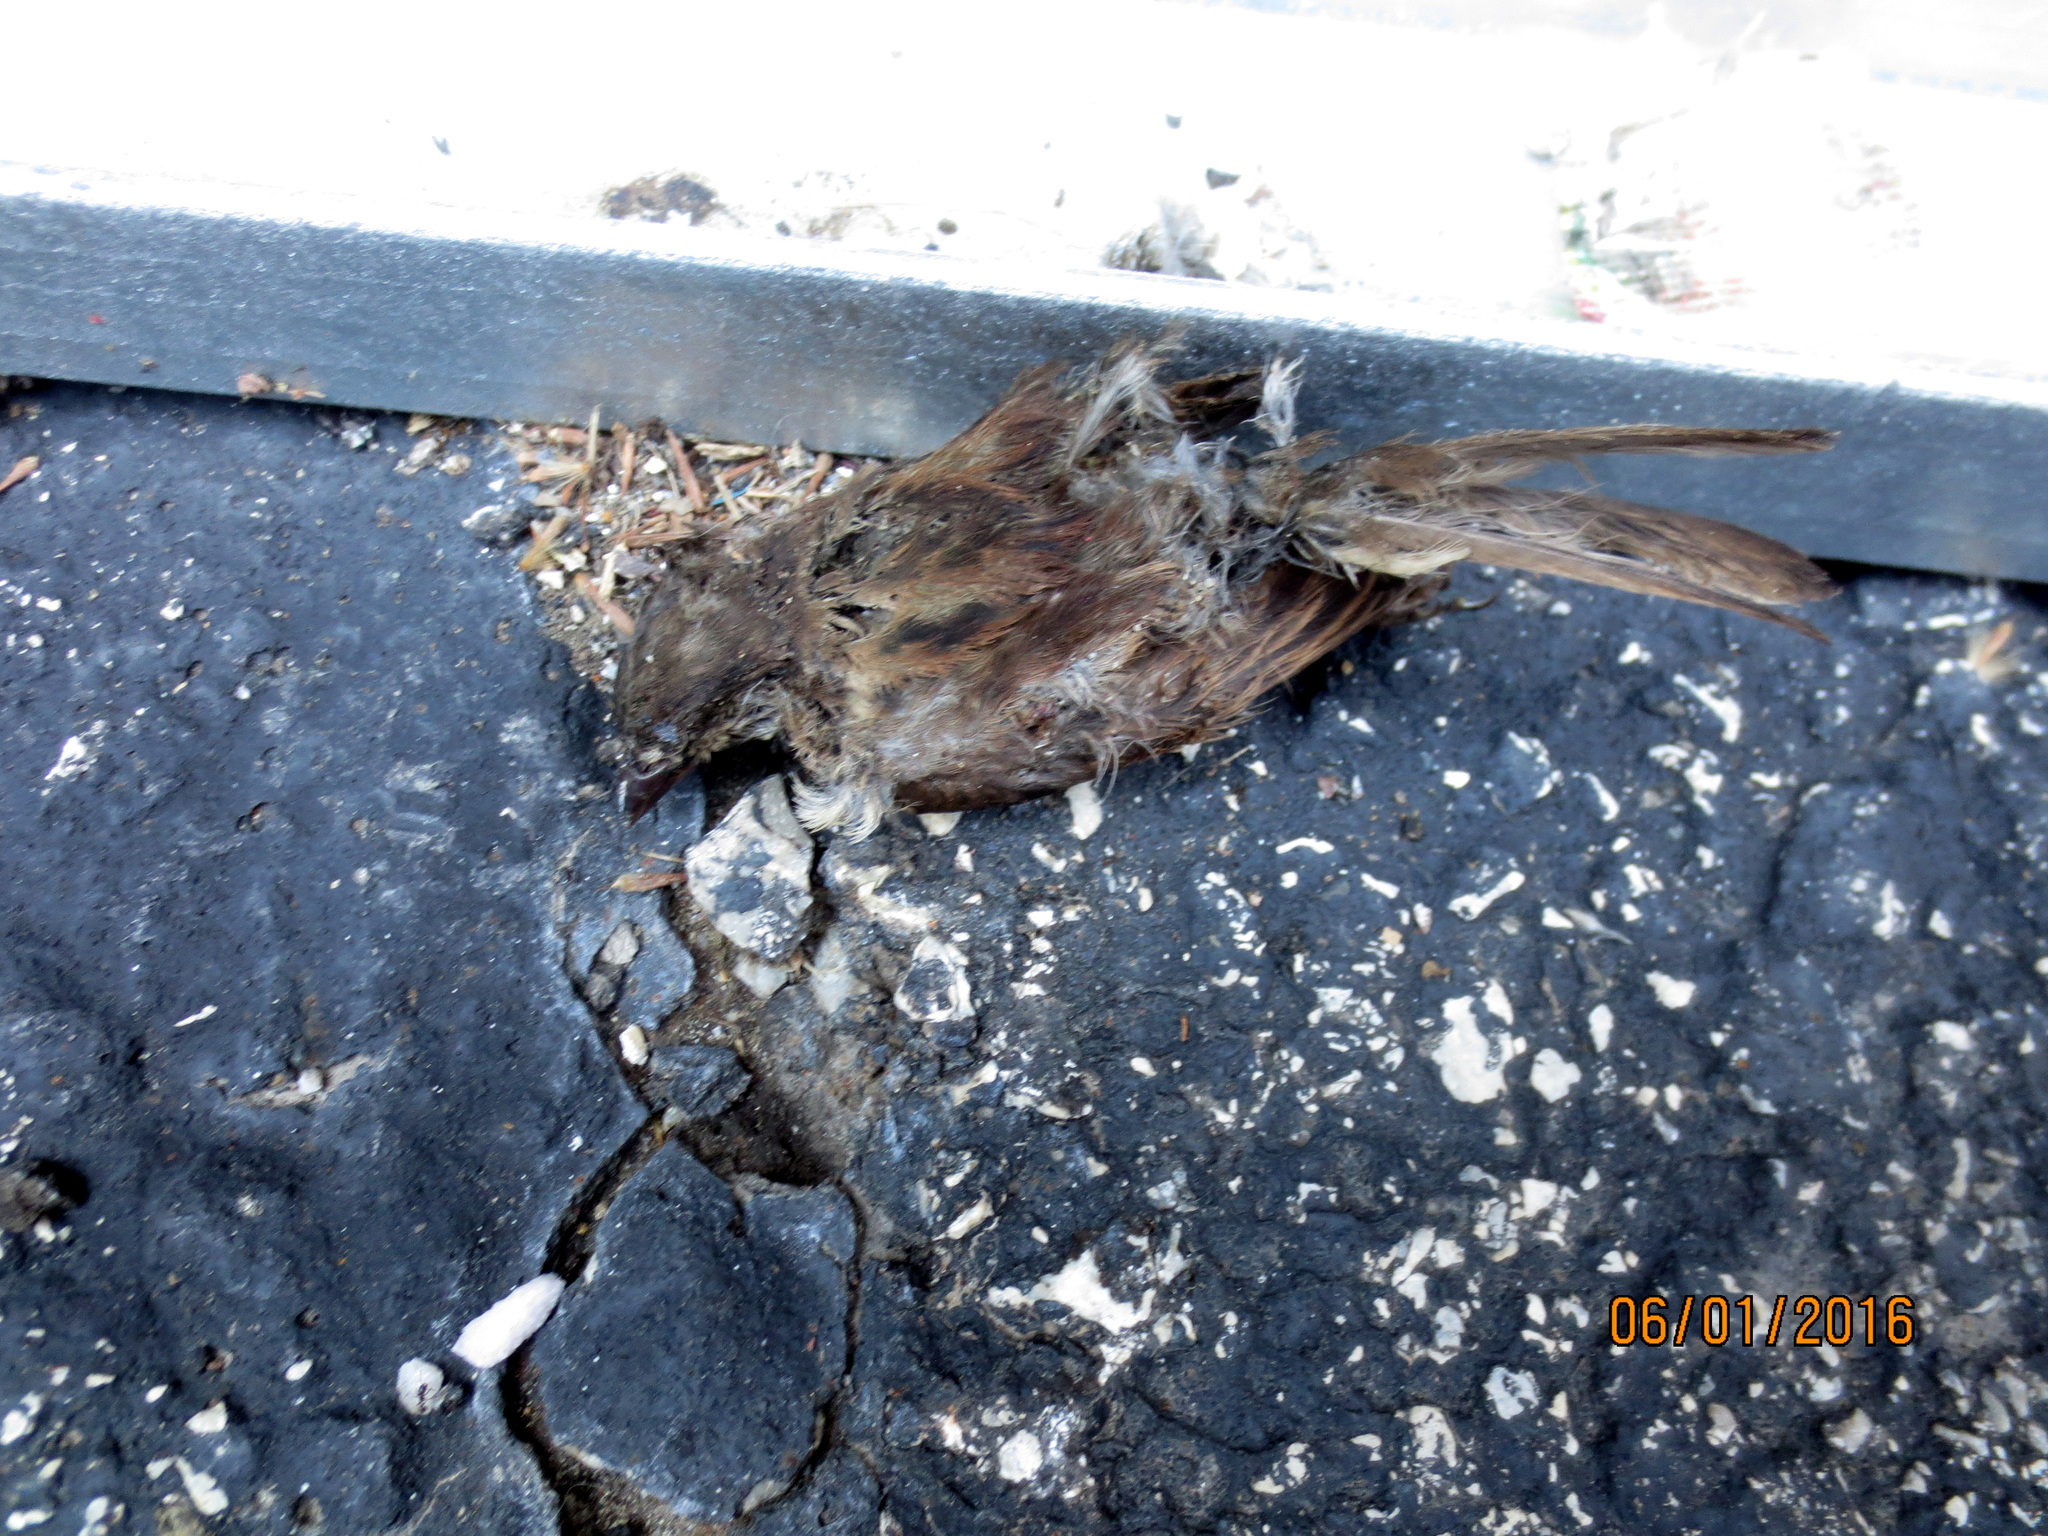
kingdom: Animalia
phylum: Chordata
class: Aves
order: Passeriformes
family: Passeridae
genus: Passer
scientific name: Passer domesticus
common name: House sparrow
